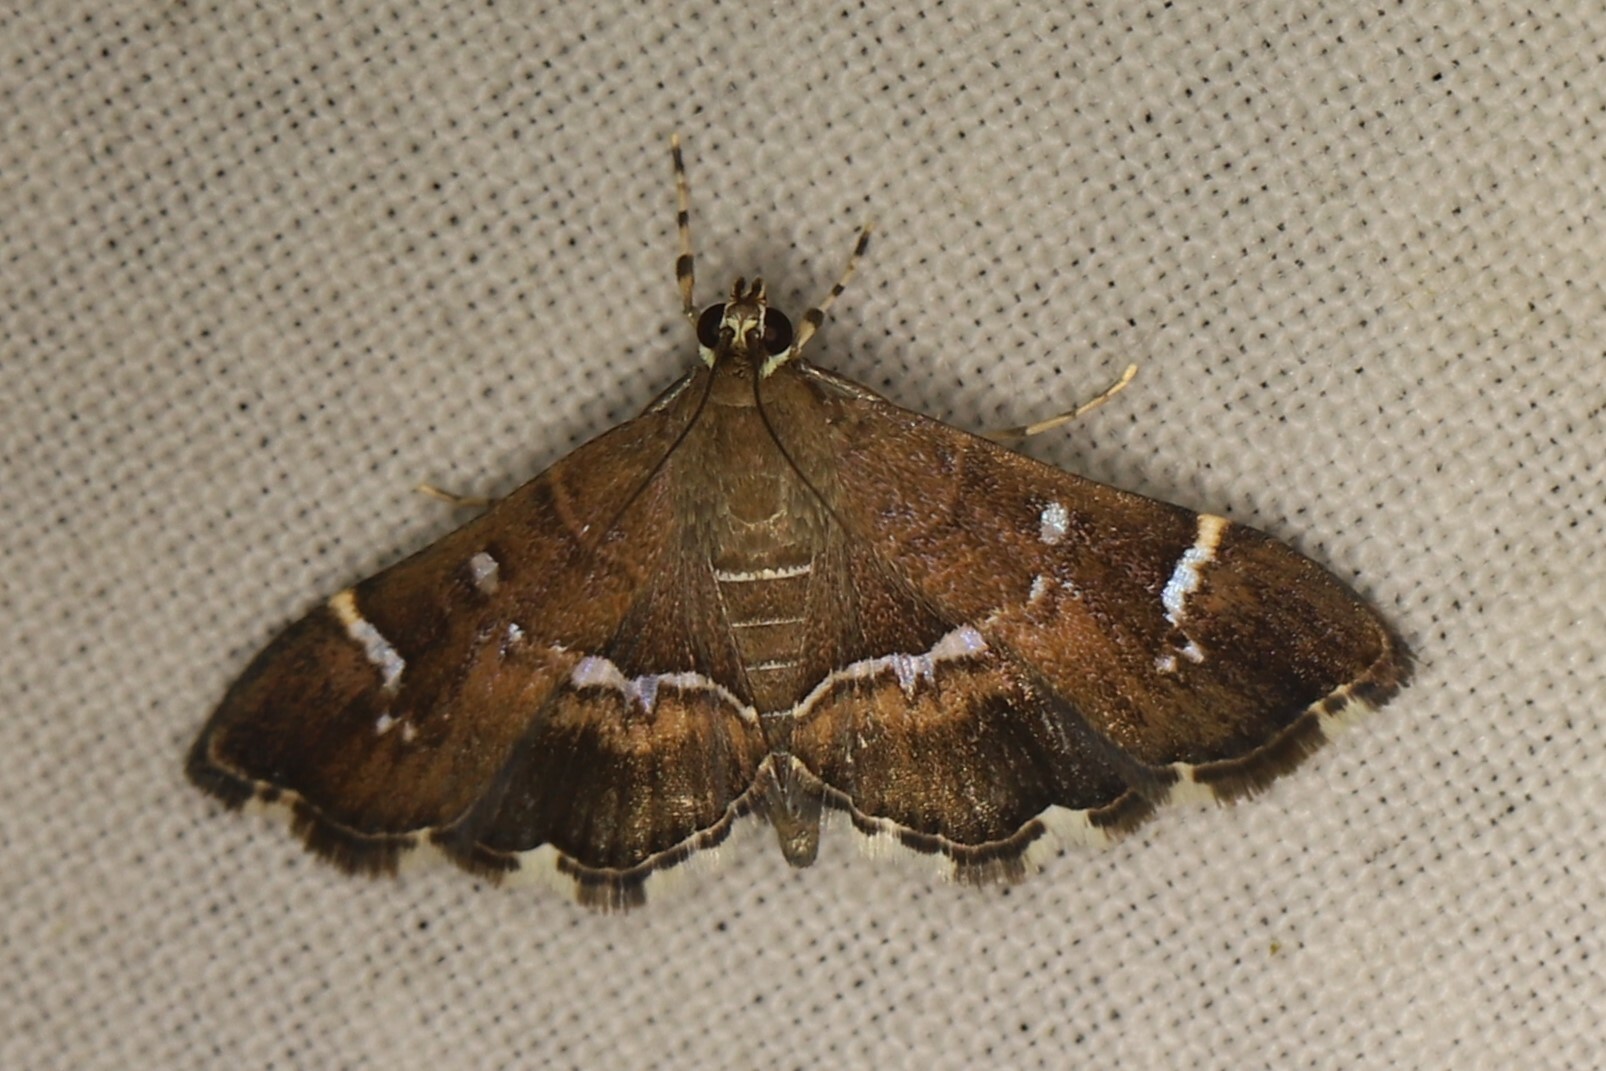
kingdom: Animalia
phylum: Arthropoda
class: Insecta
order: Lepidoptera
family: Crambidae
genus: Hymenia
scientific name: Hymenia perspectalis
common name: Spotted beet webworm
